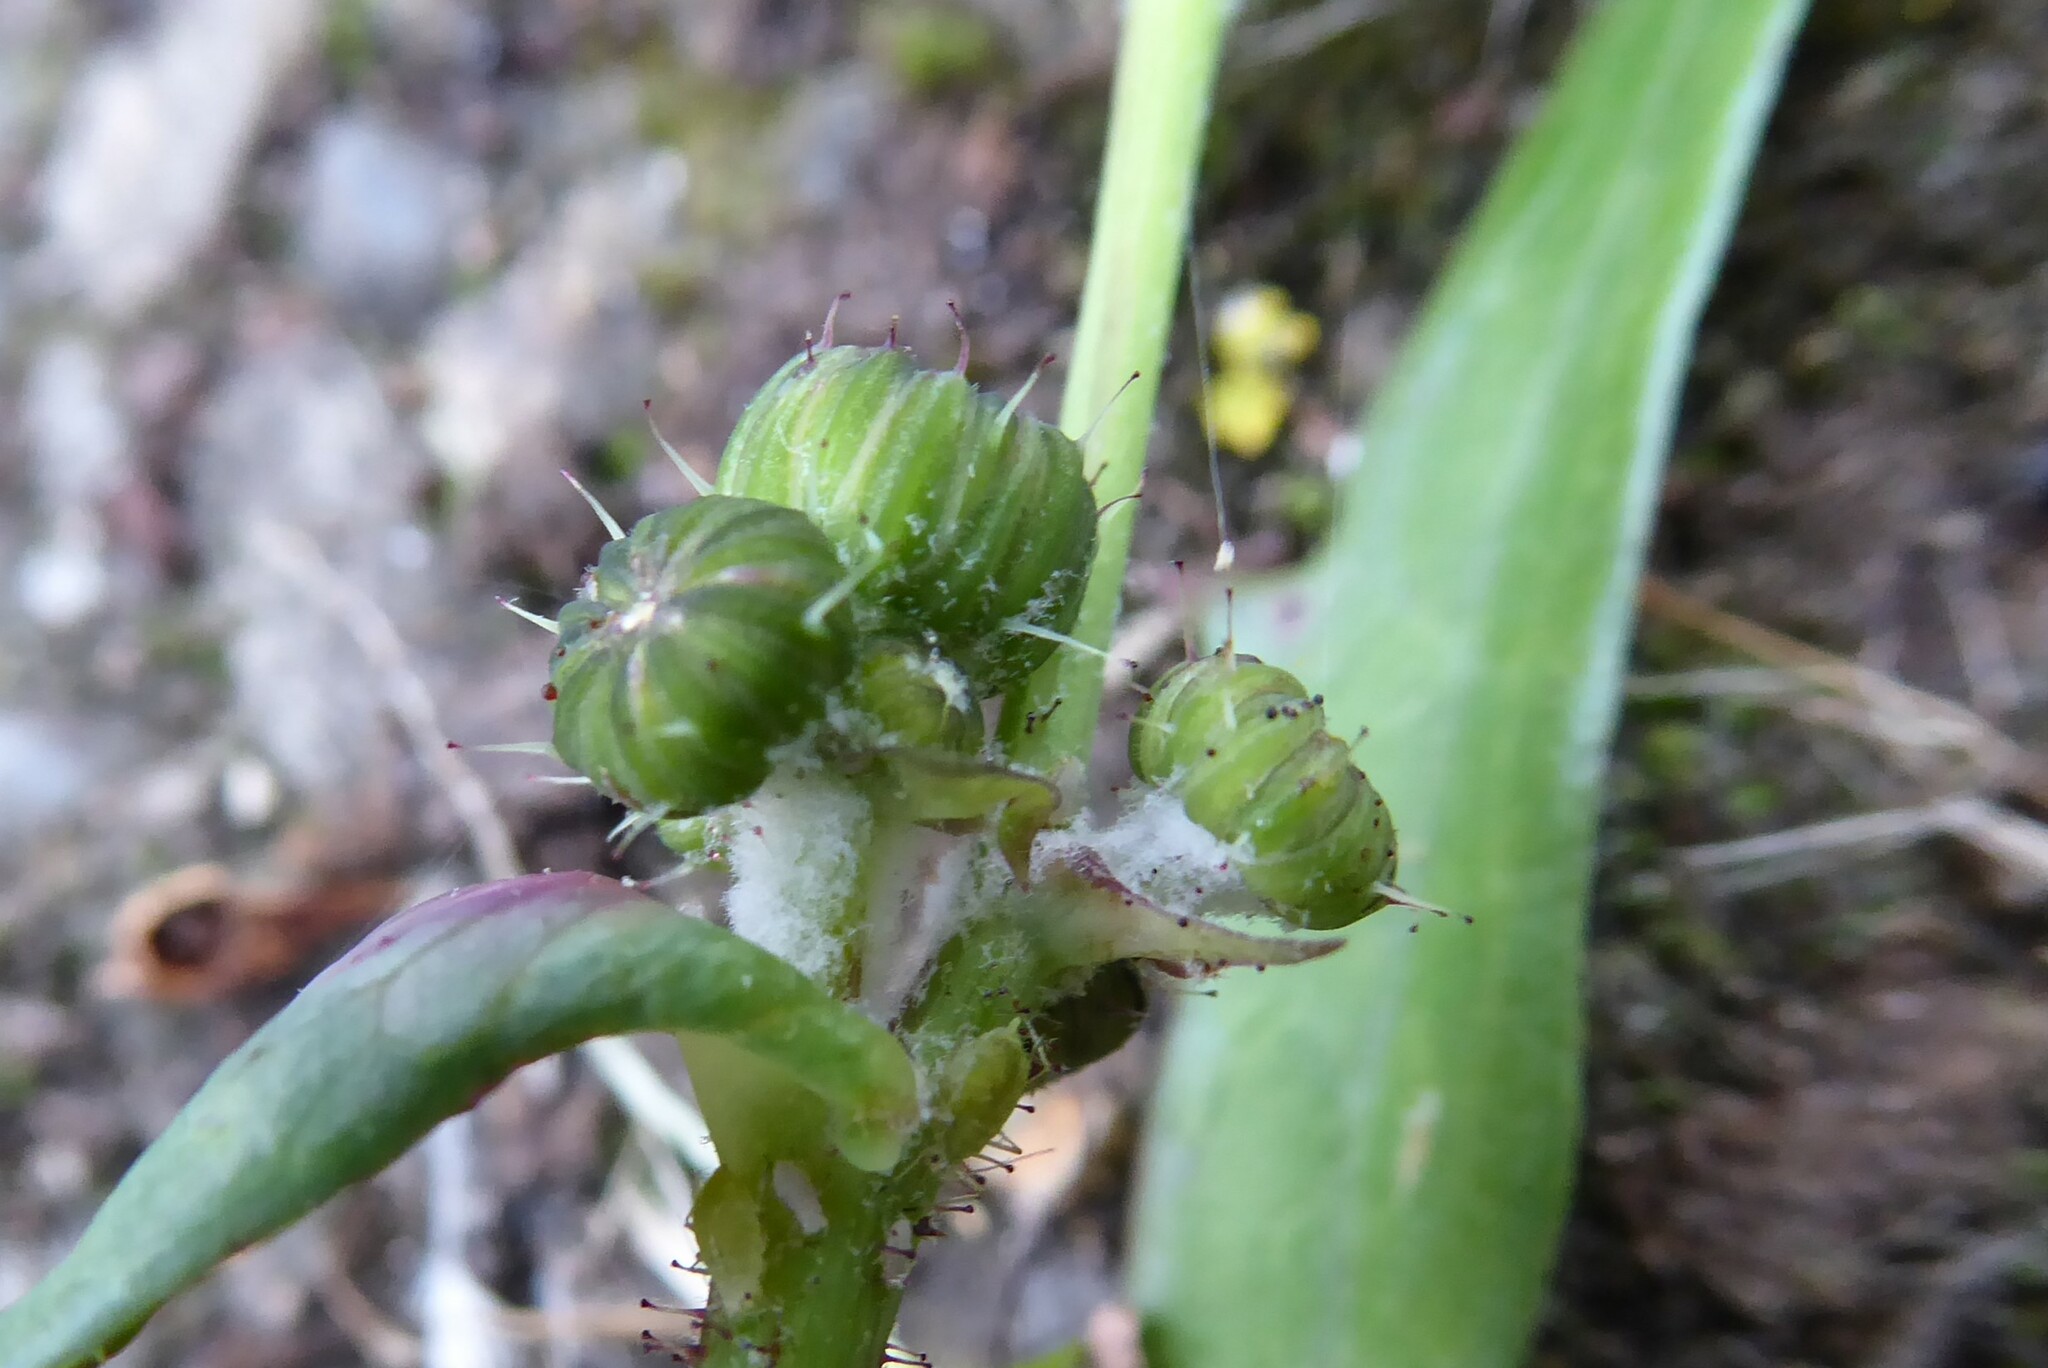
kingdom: Plantae
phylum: Tracheophyta
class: Magnoliopsida
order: Asterales
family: Asteraceae
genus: Sonchus
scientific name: Sonchus oleraceus
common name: Common sowthistle
